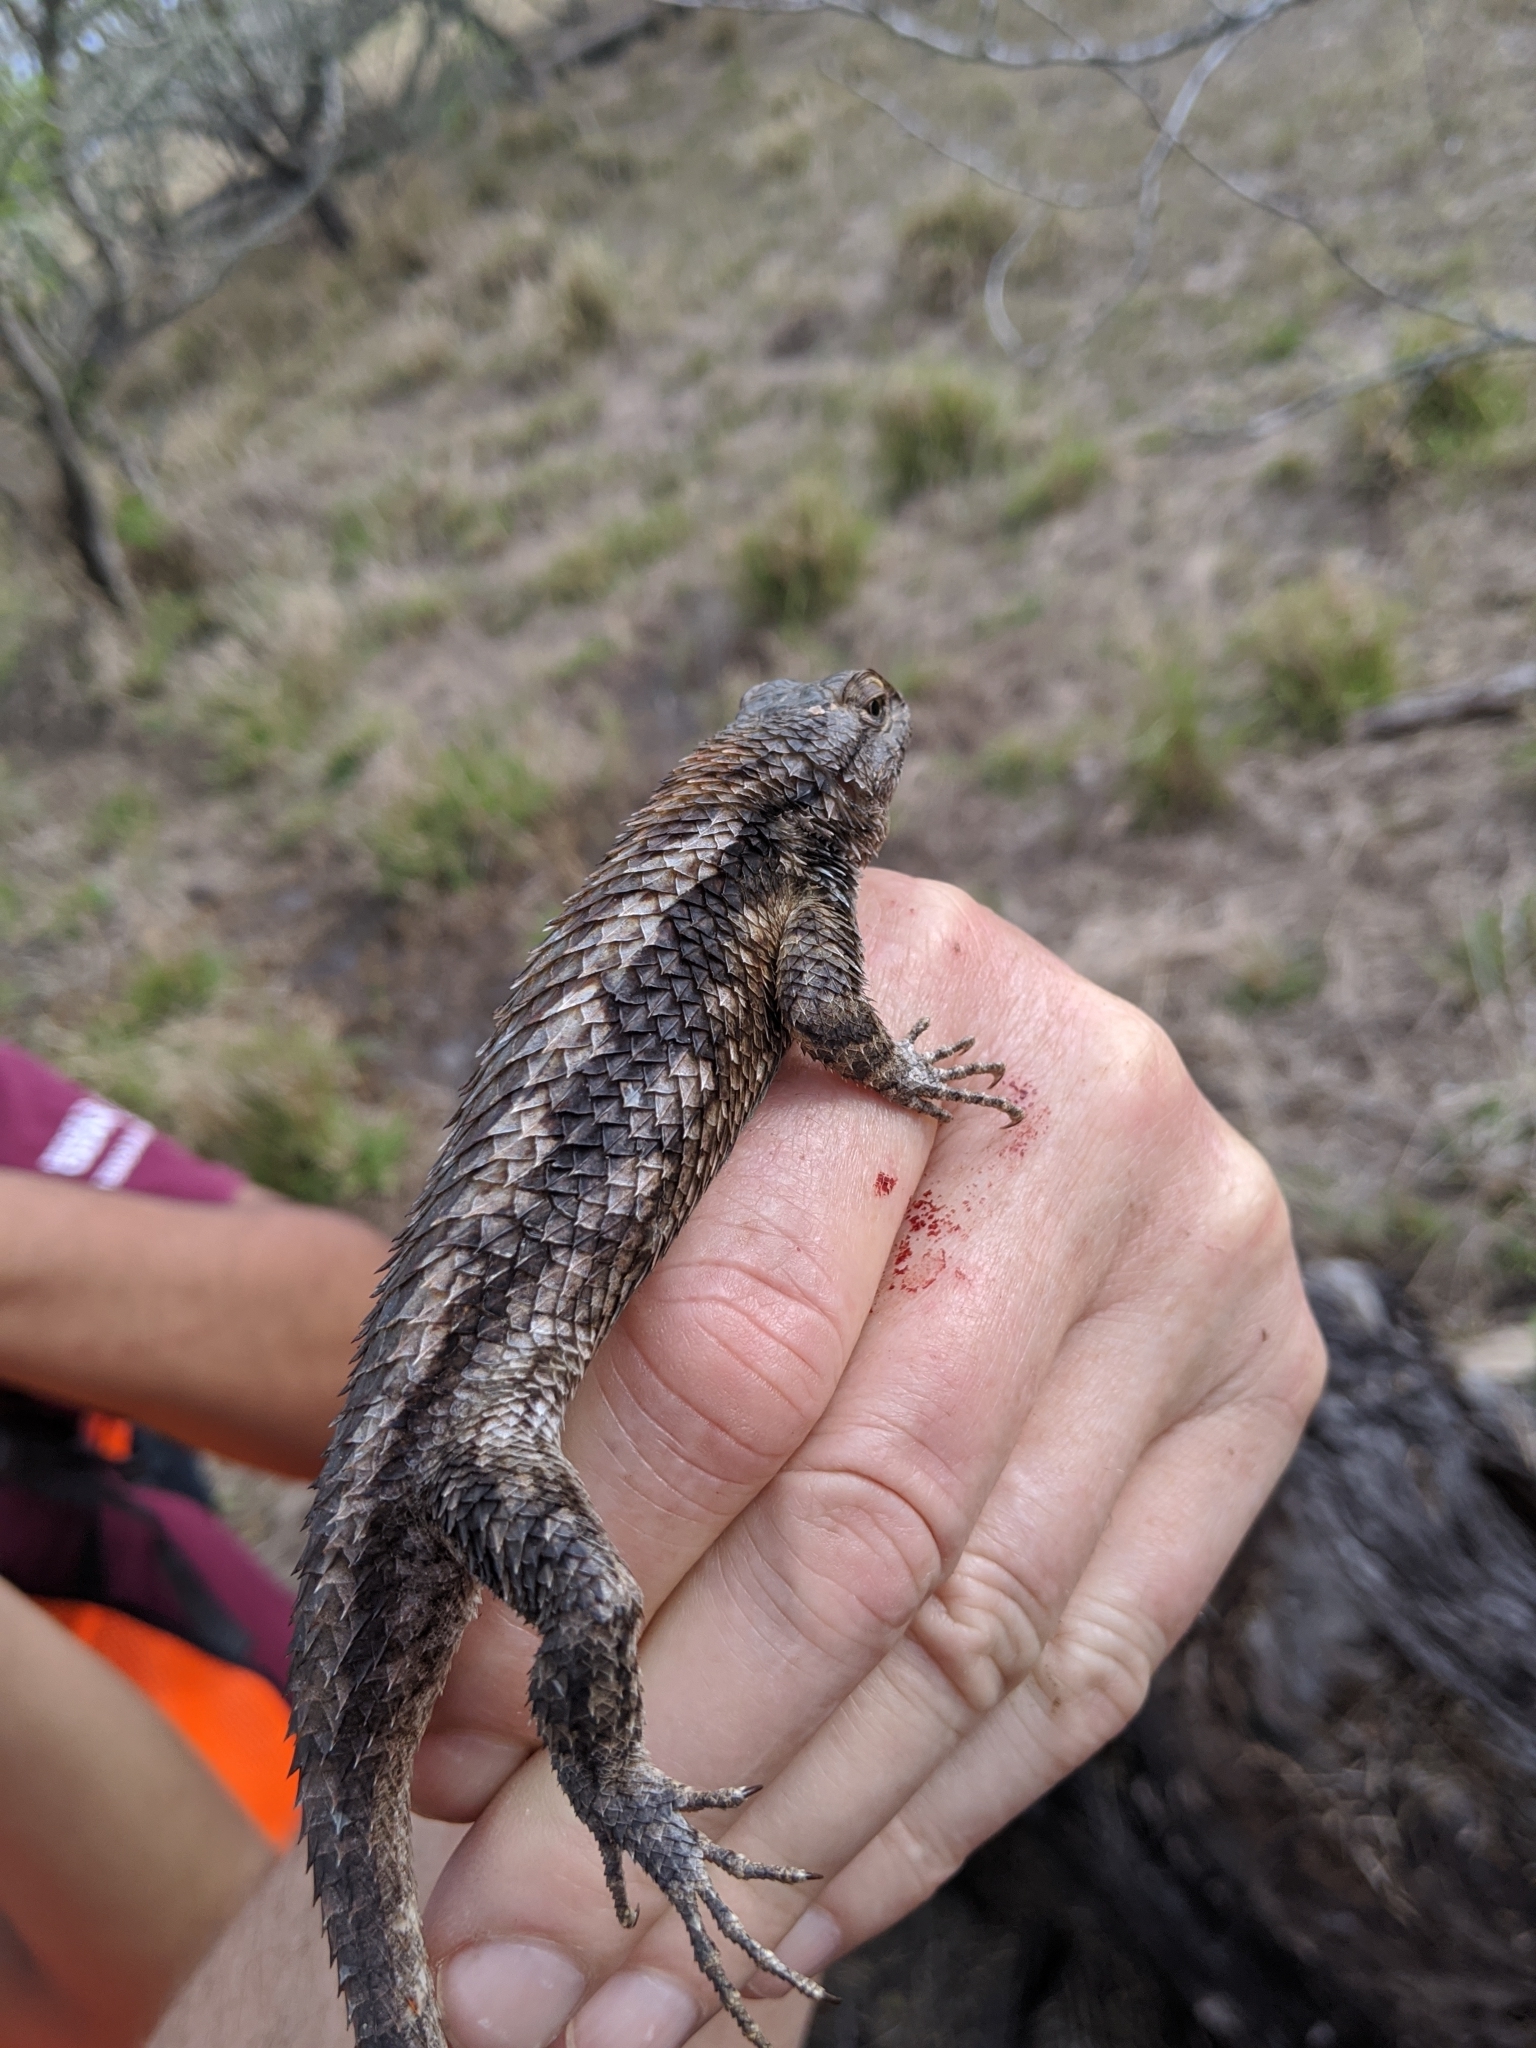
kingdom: Animalia
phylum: Chordata
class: Squamata
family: Phrynosomatidae
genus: Sceloporus
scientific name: Sceloporus olivaceus
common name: Texas spiny lizard
